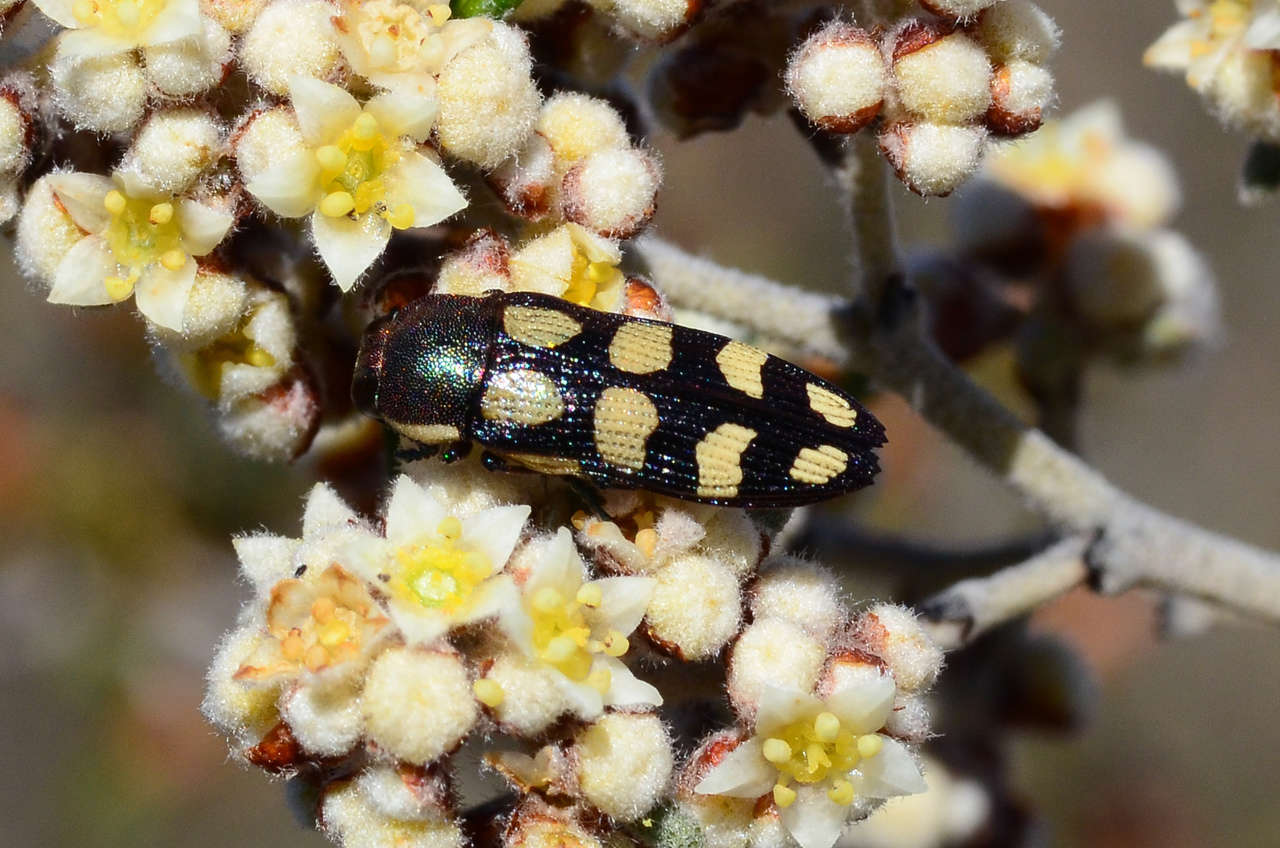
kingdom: Animalia
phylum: Arthropoda
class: Insecta
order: Coleoptera
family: Buprestidae
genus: Castiarina
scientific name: Castiarina decemmaculata
